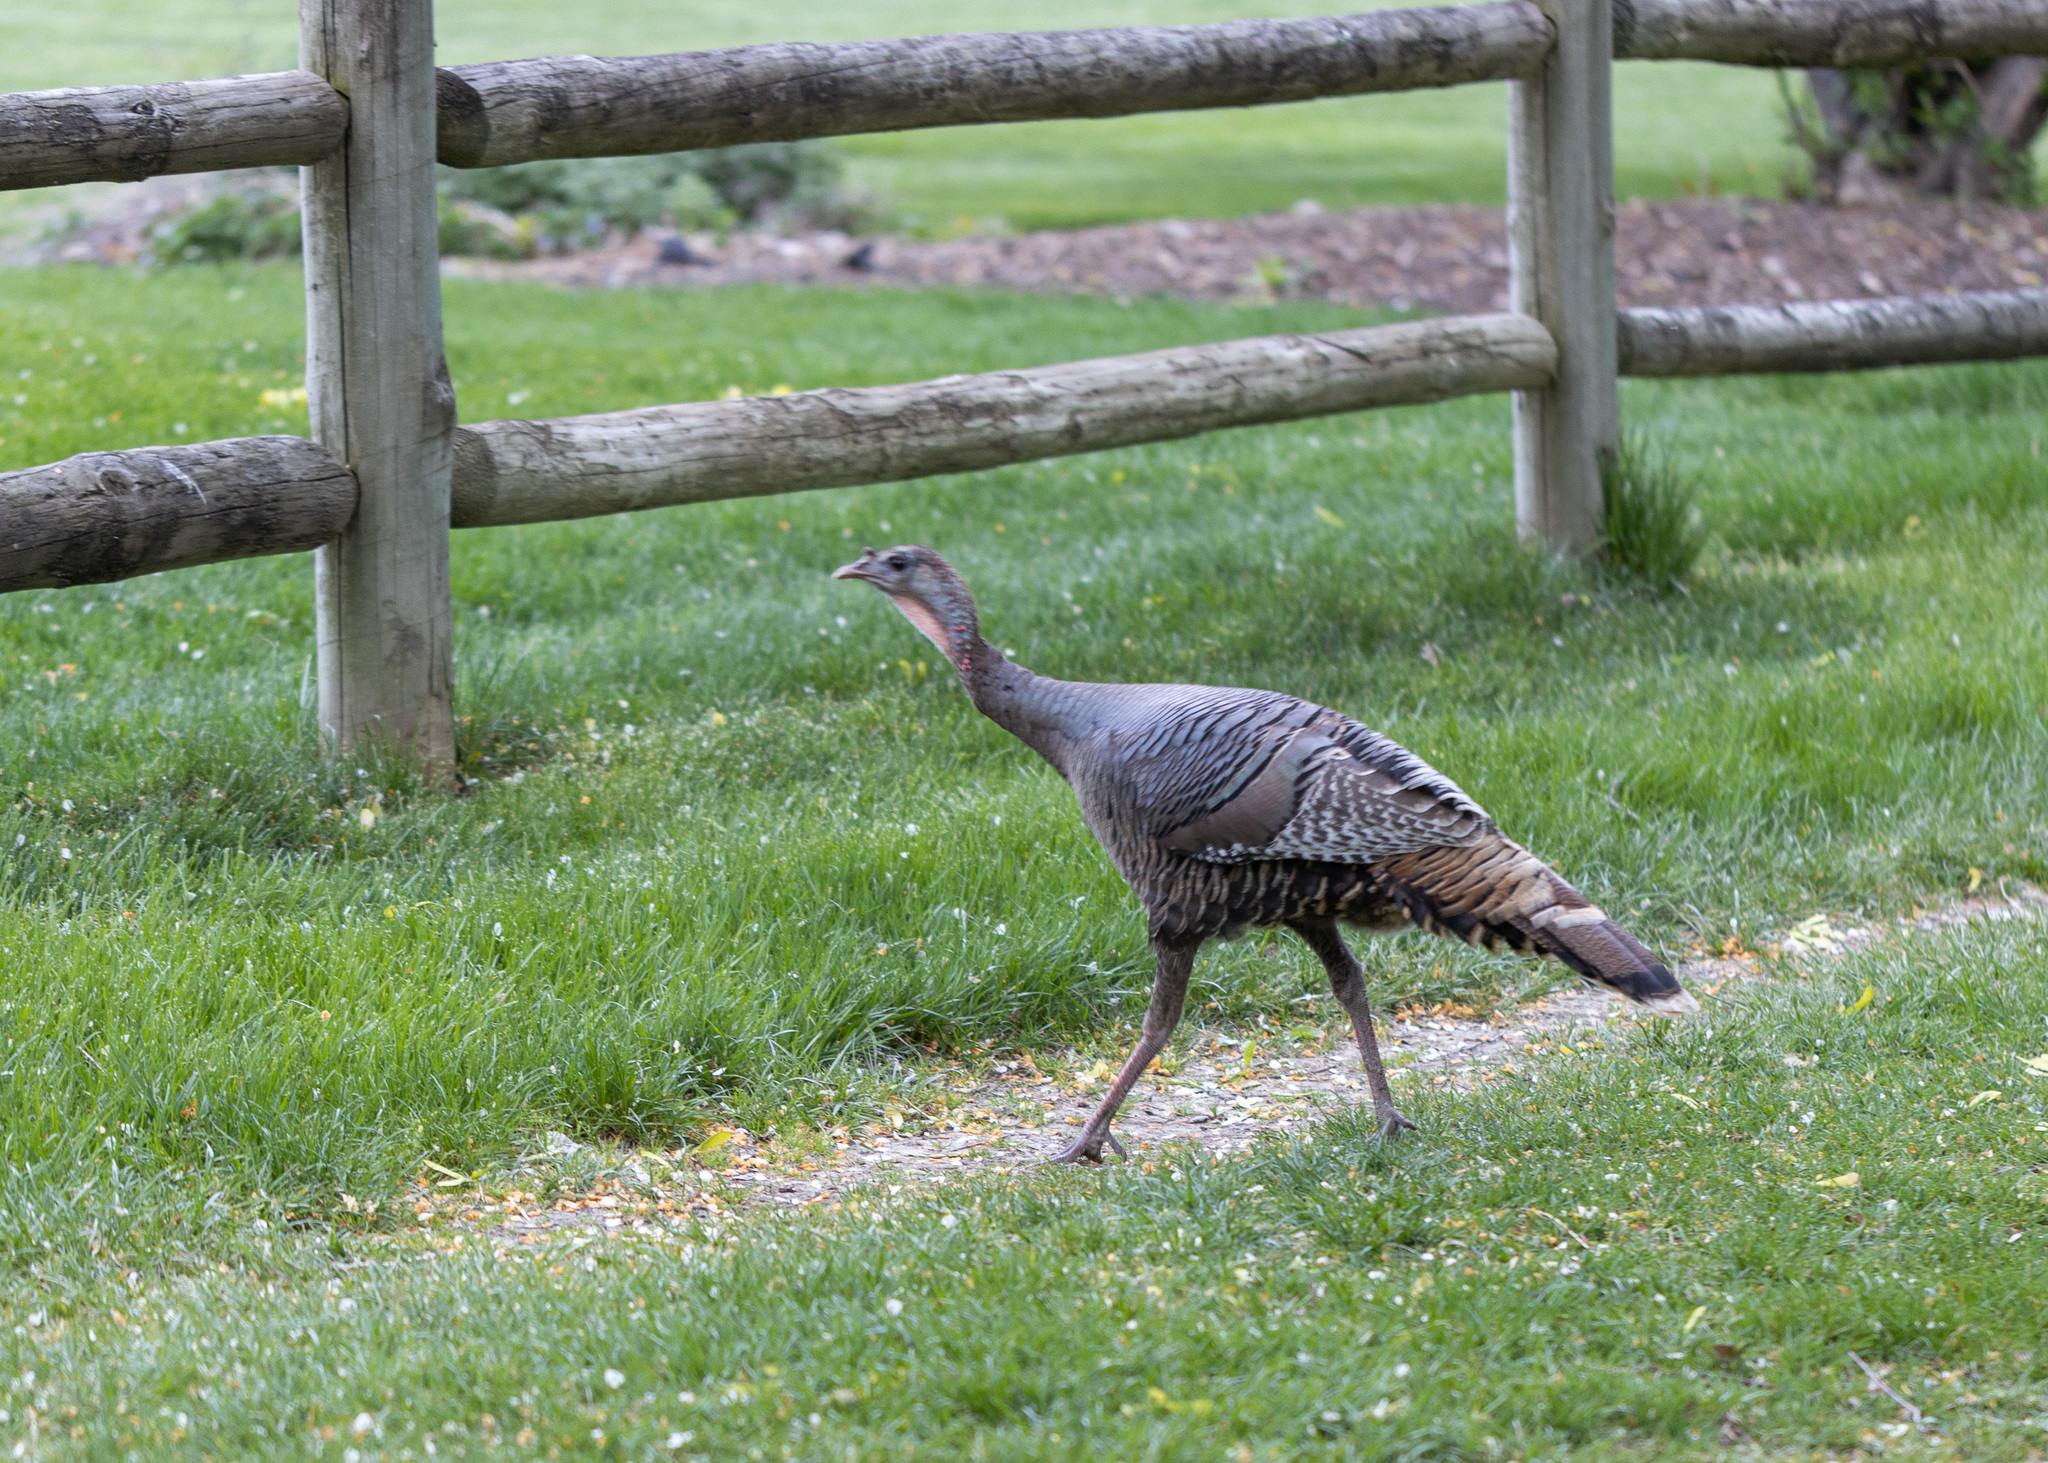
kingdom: Animalia
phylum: Chordata
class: Aves
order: Galliformes
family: Phasianidae
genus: Meleagris
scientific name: Meleagris gallopavo
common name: Wild turkey
